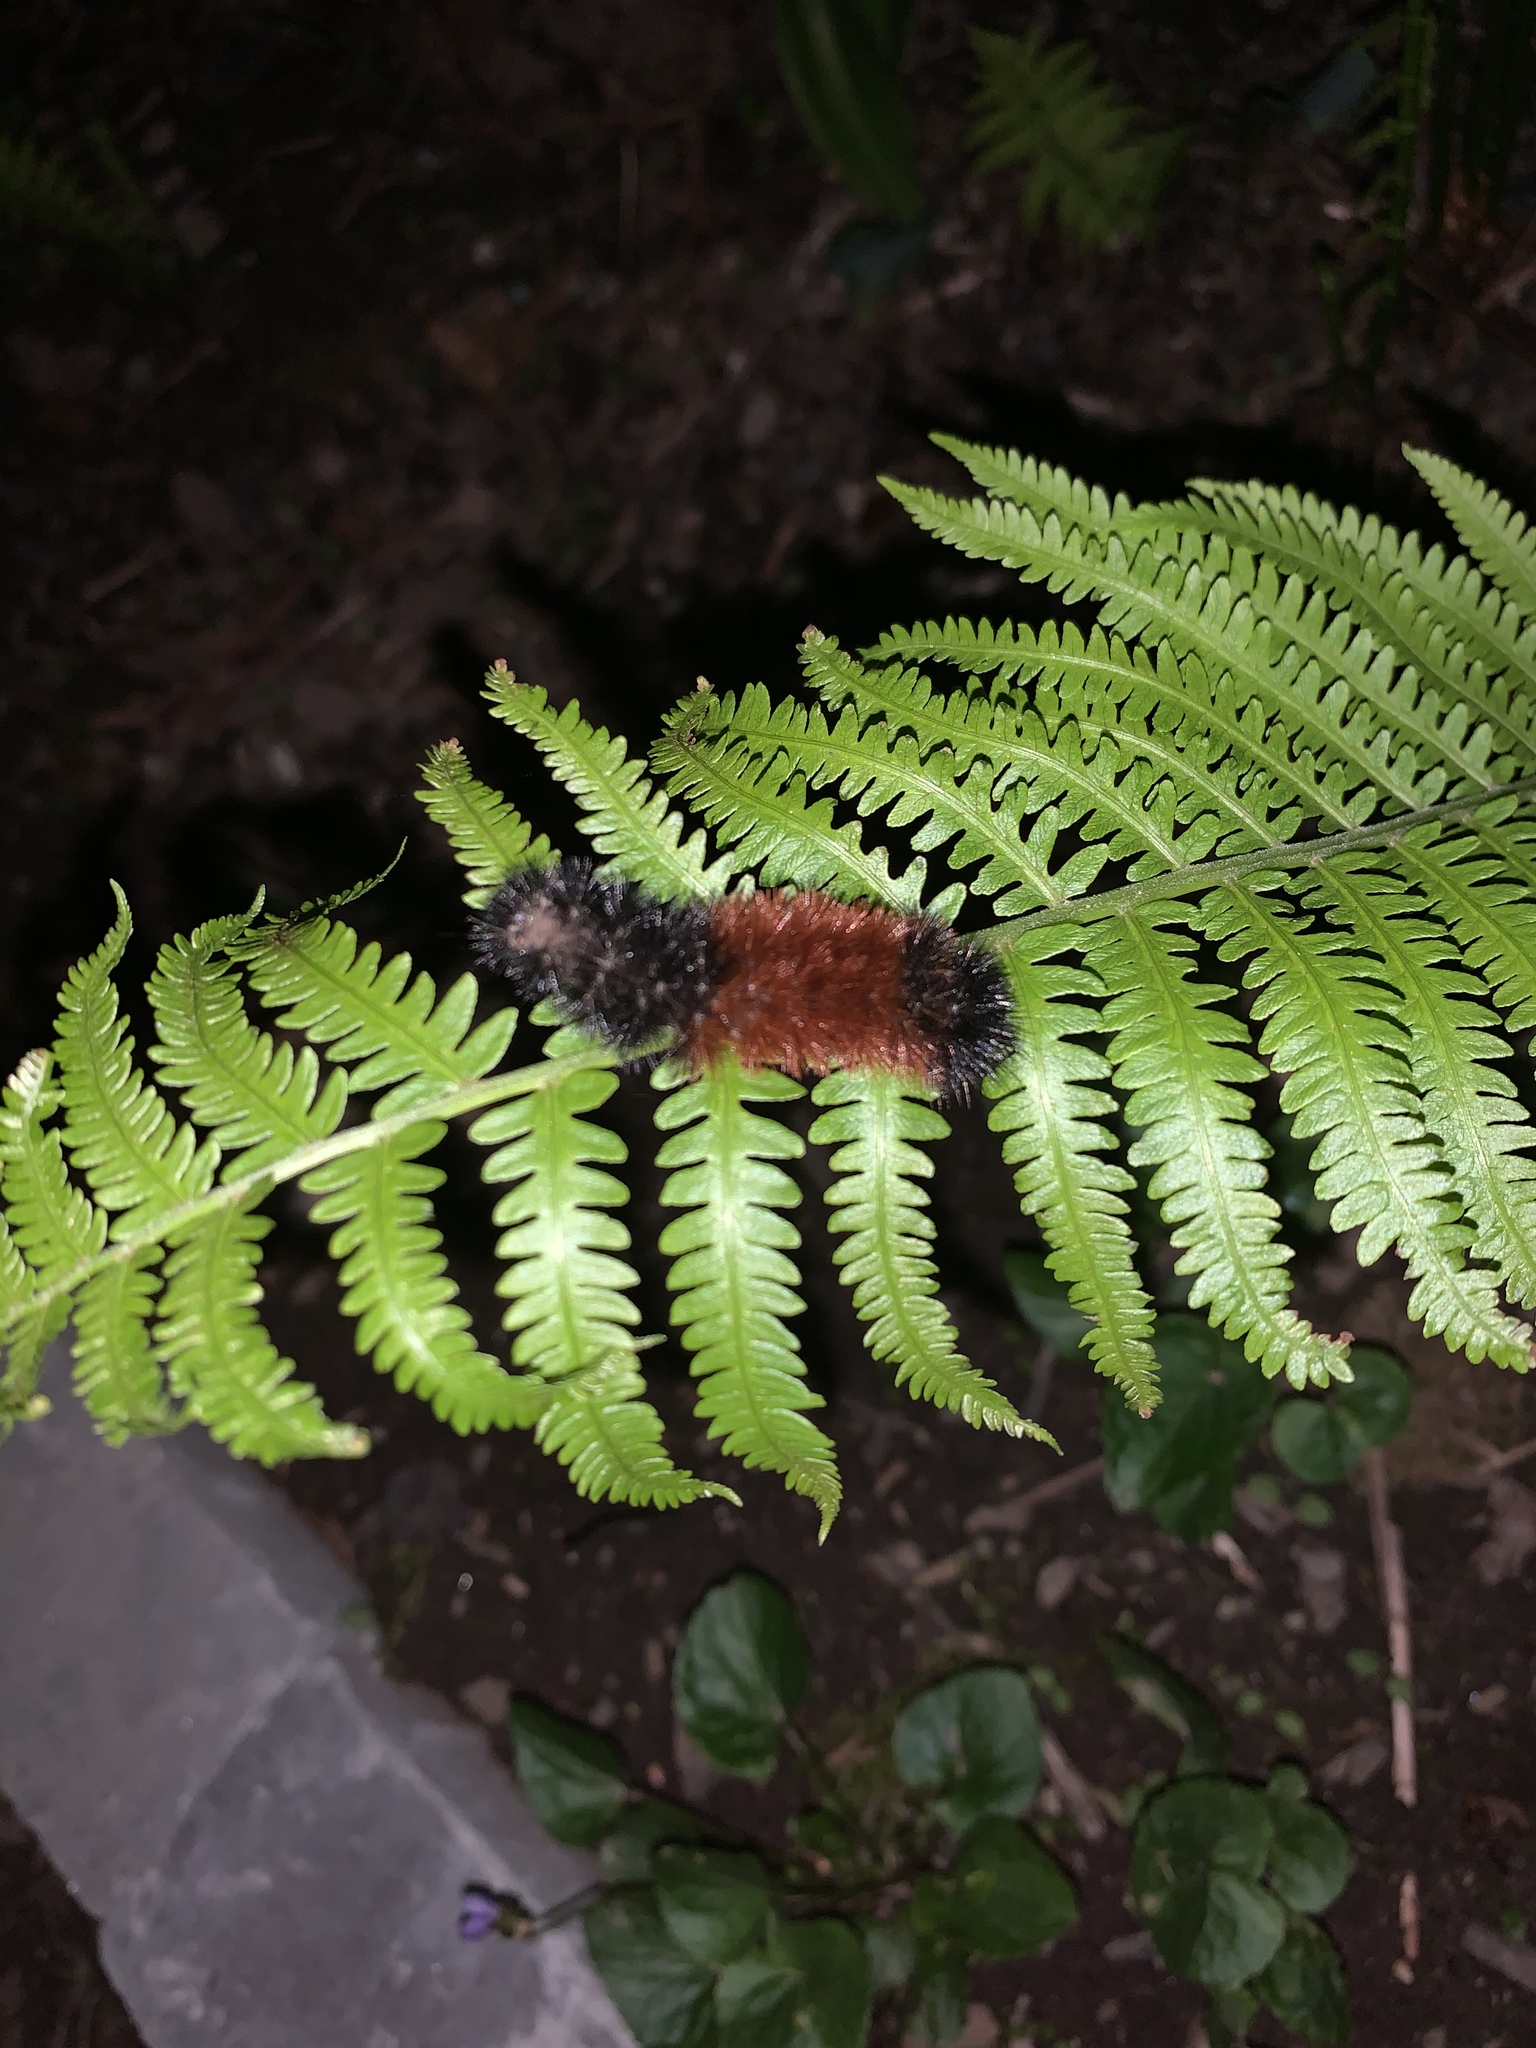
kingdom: Animalia
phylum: Arthropoda
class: Insecta
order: Lepidoptera
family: Erebidae
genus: Pyrrharctia
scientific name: Pyrrharctia isabella
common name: Isabella tiger moth
